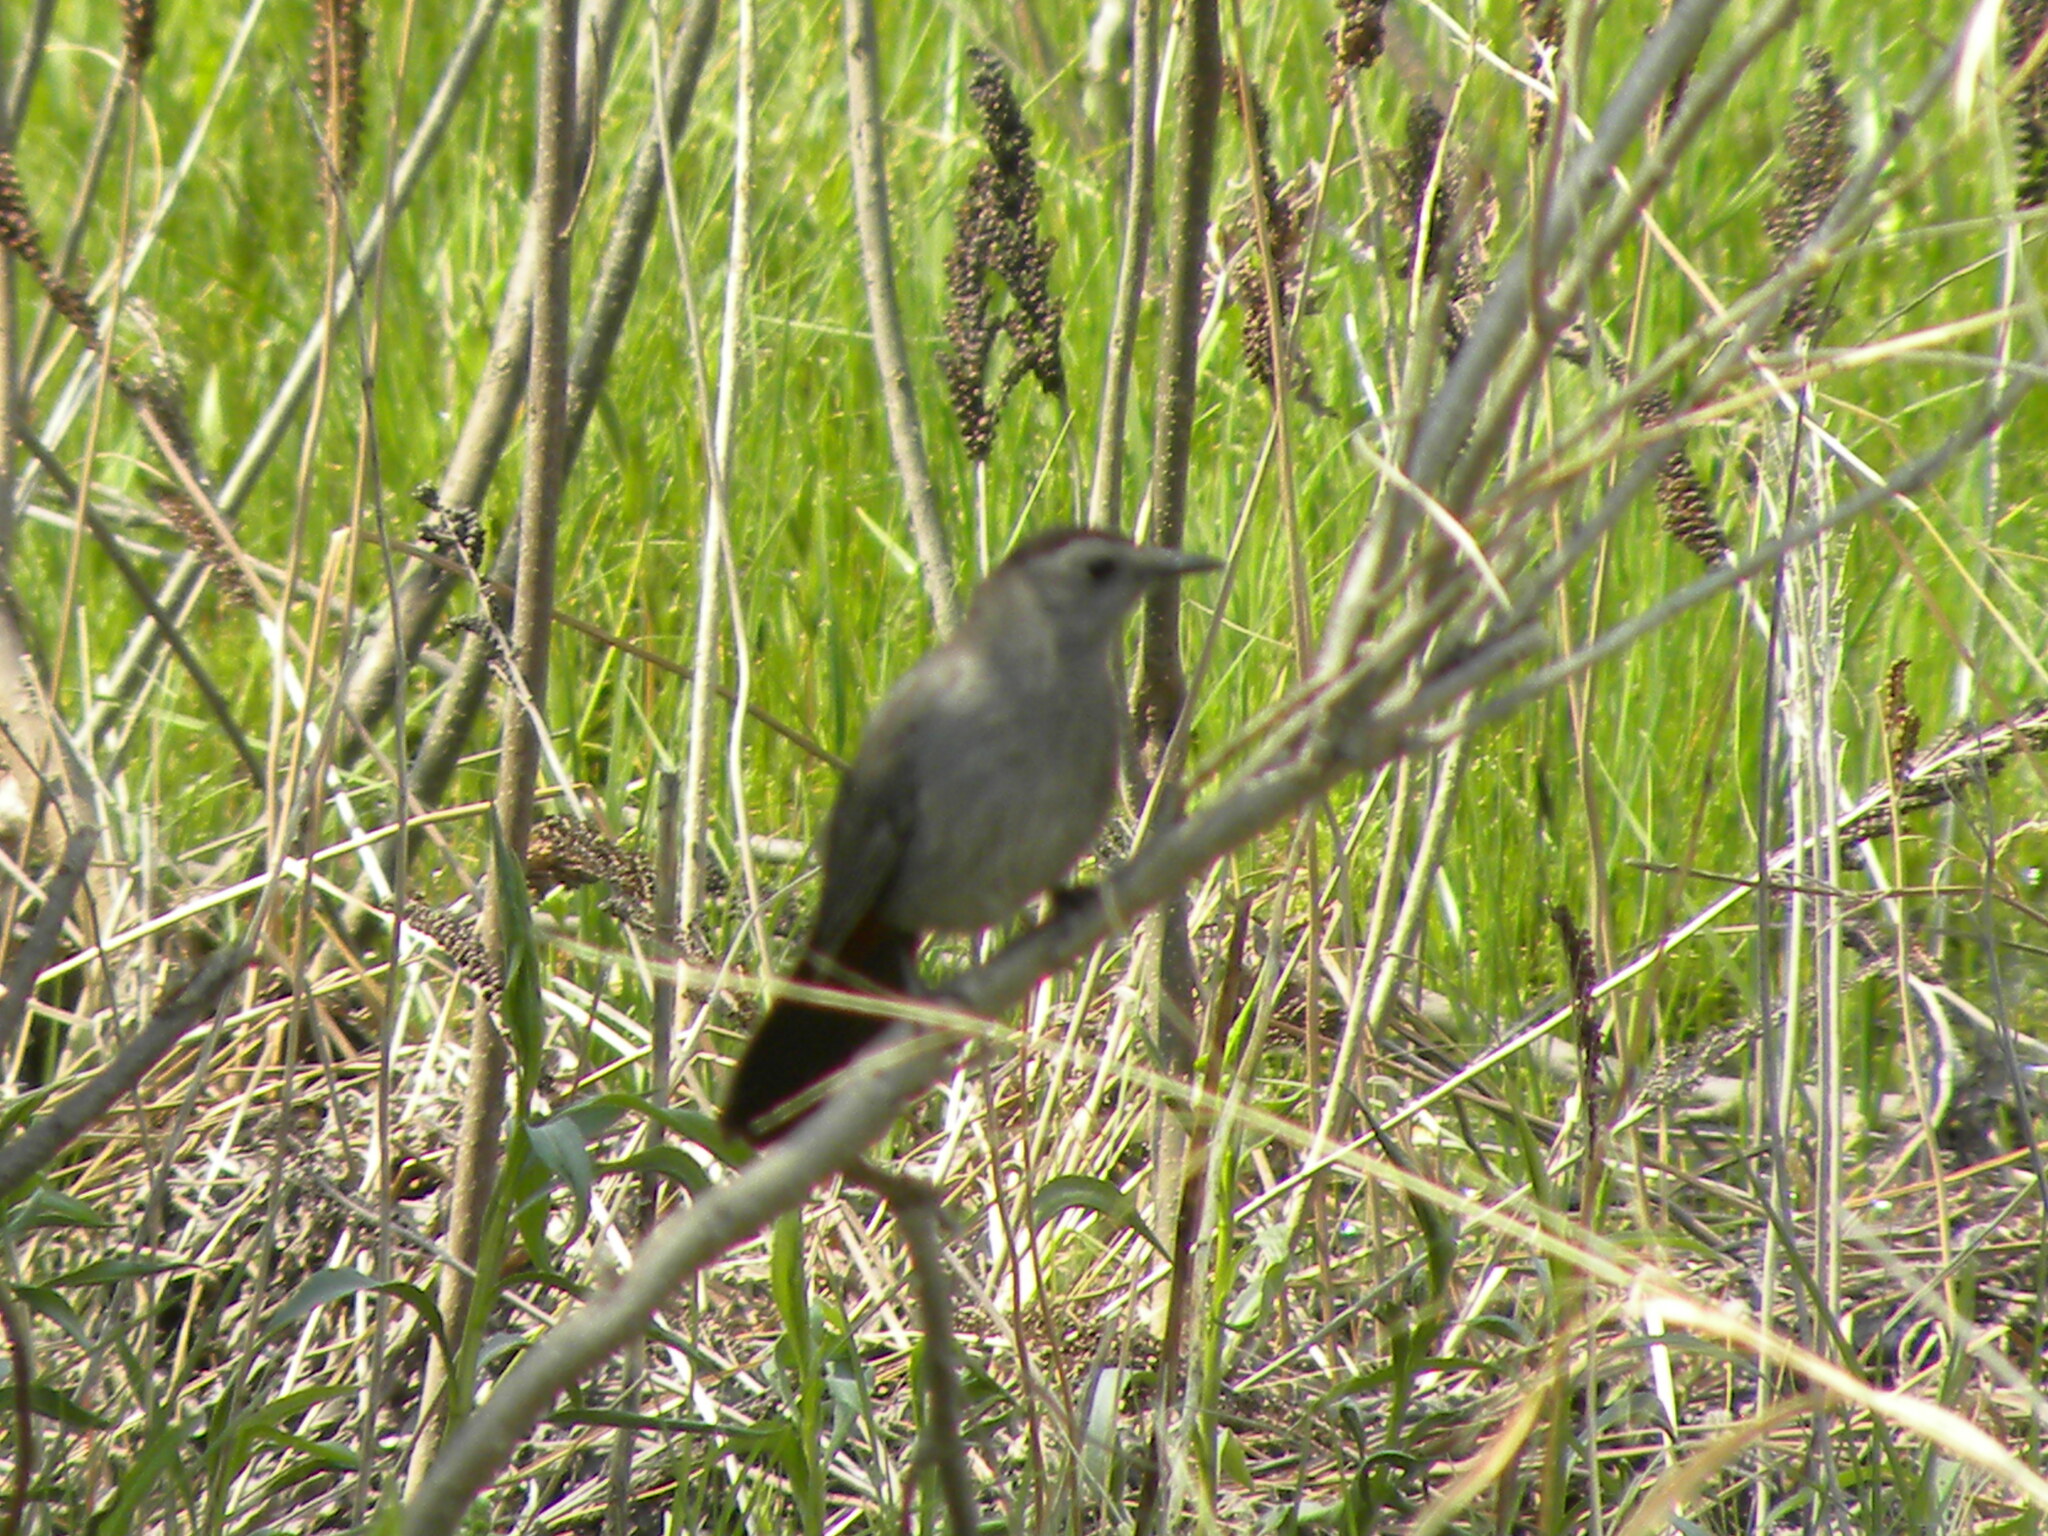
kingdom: Animalia
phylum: Chordata
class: Aves
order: Passeriformes
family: Mimidae
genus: Dumetella
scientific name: Dumetella carolinensis
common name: Gray catbird
